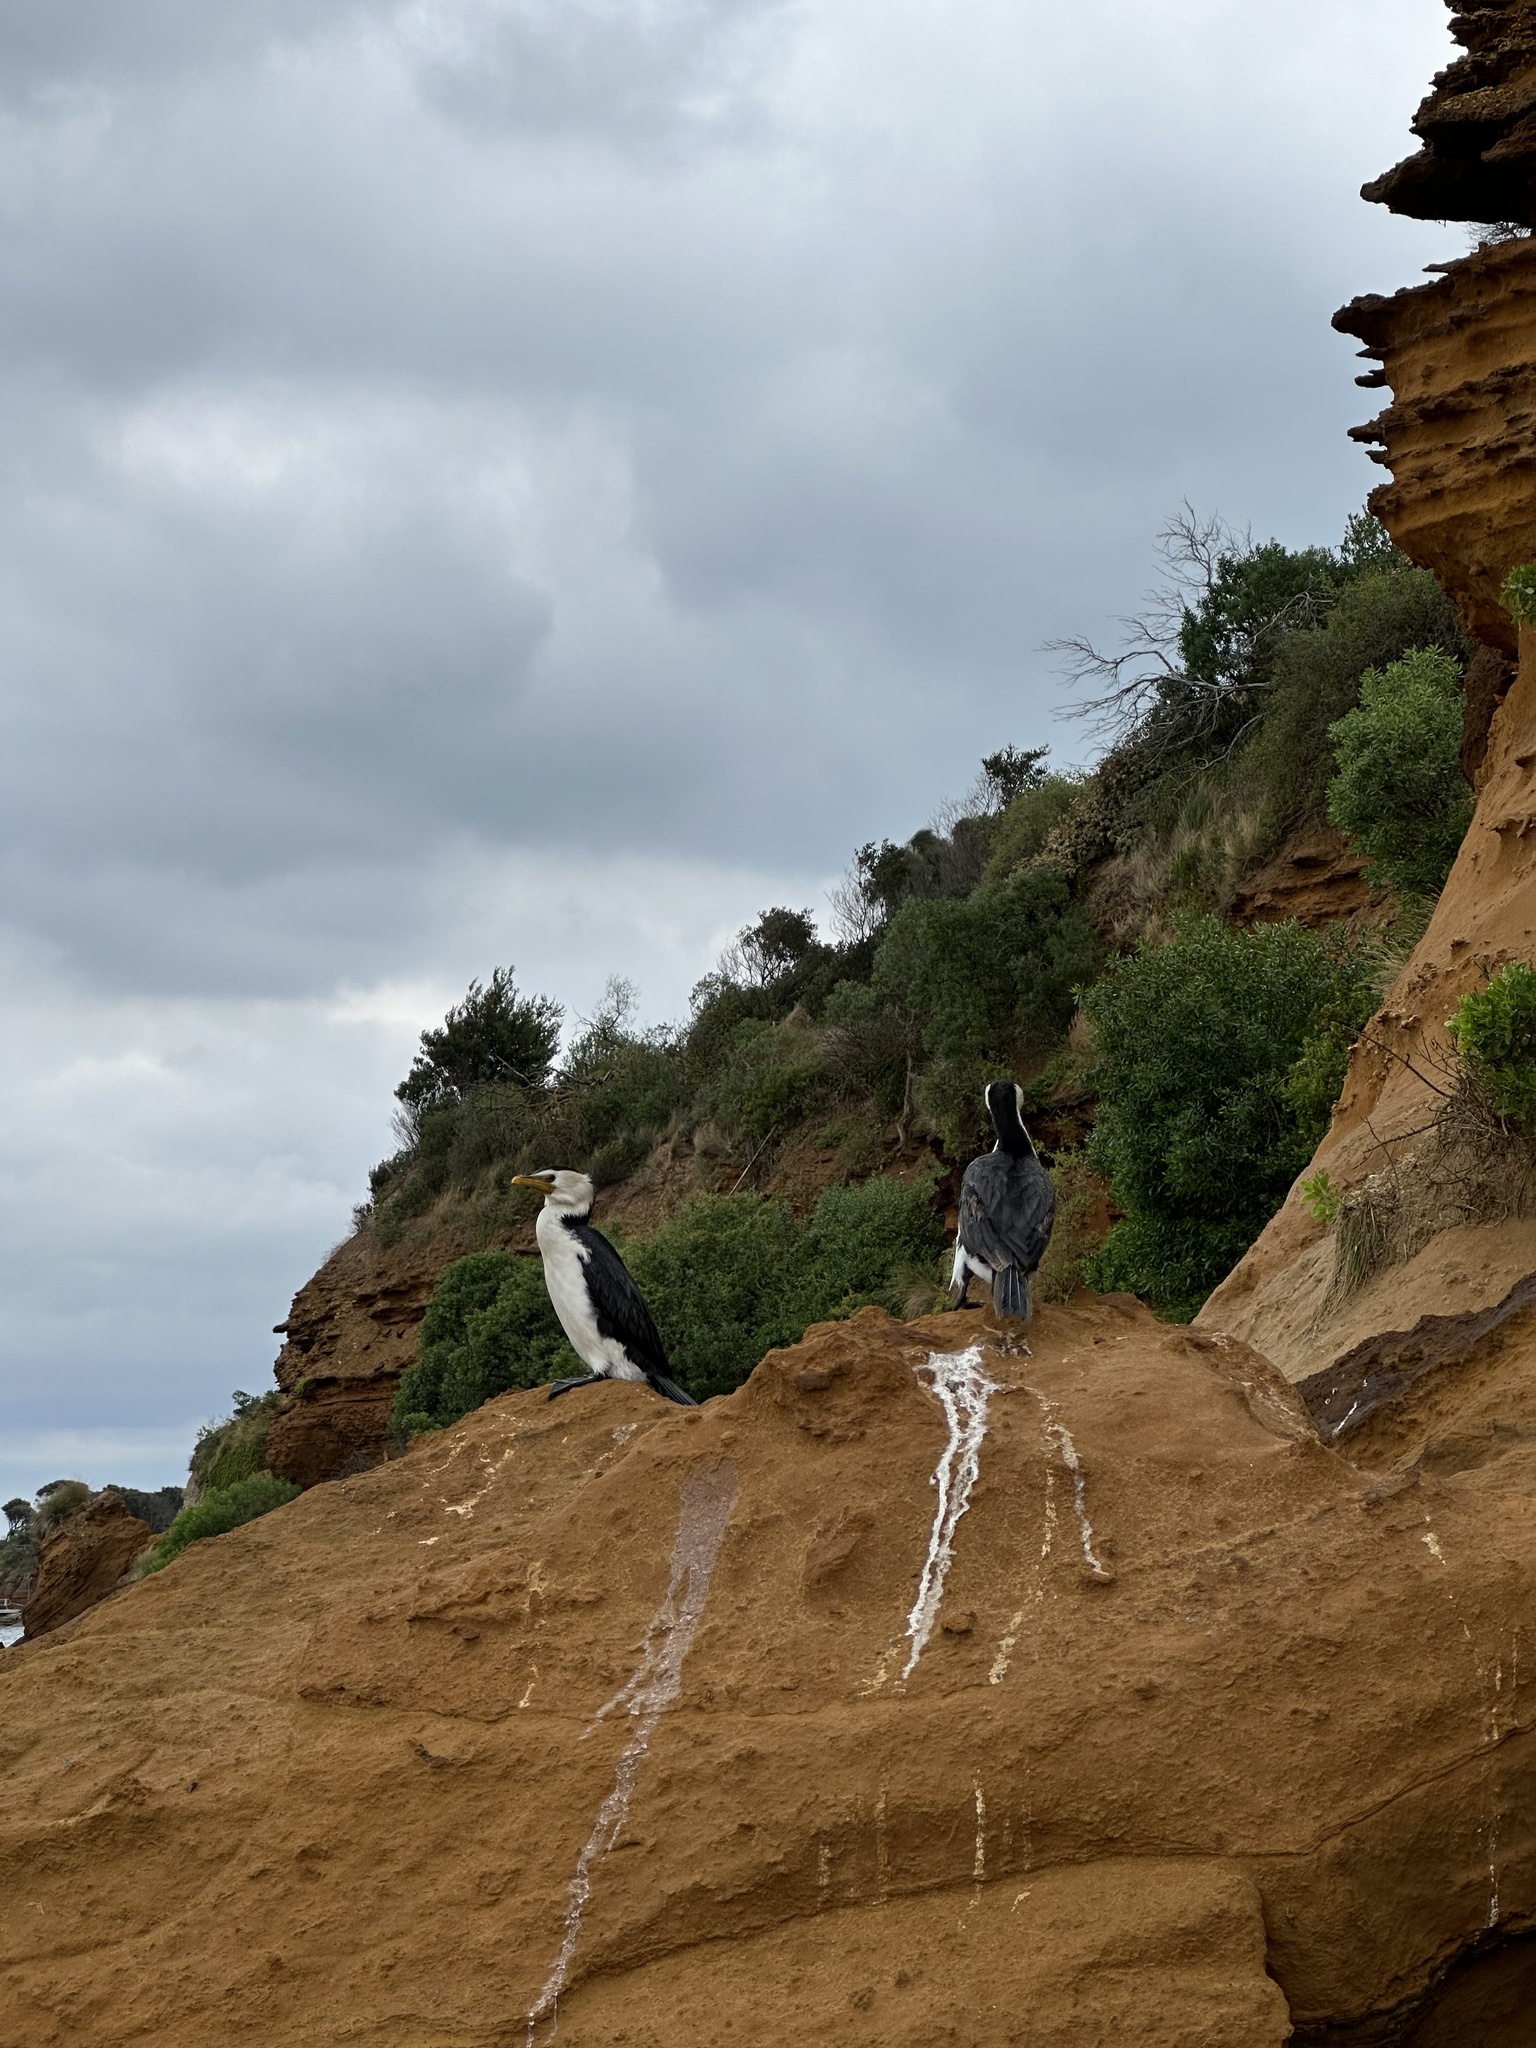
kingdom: Animalia
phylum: Chordata
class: Aves
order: Suliformes
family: Phalacrocoracidae
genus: Microcarbo
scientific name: Microcarbo melanoleucos
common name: Little pied cormorant
